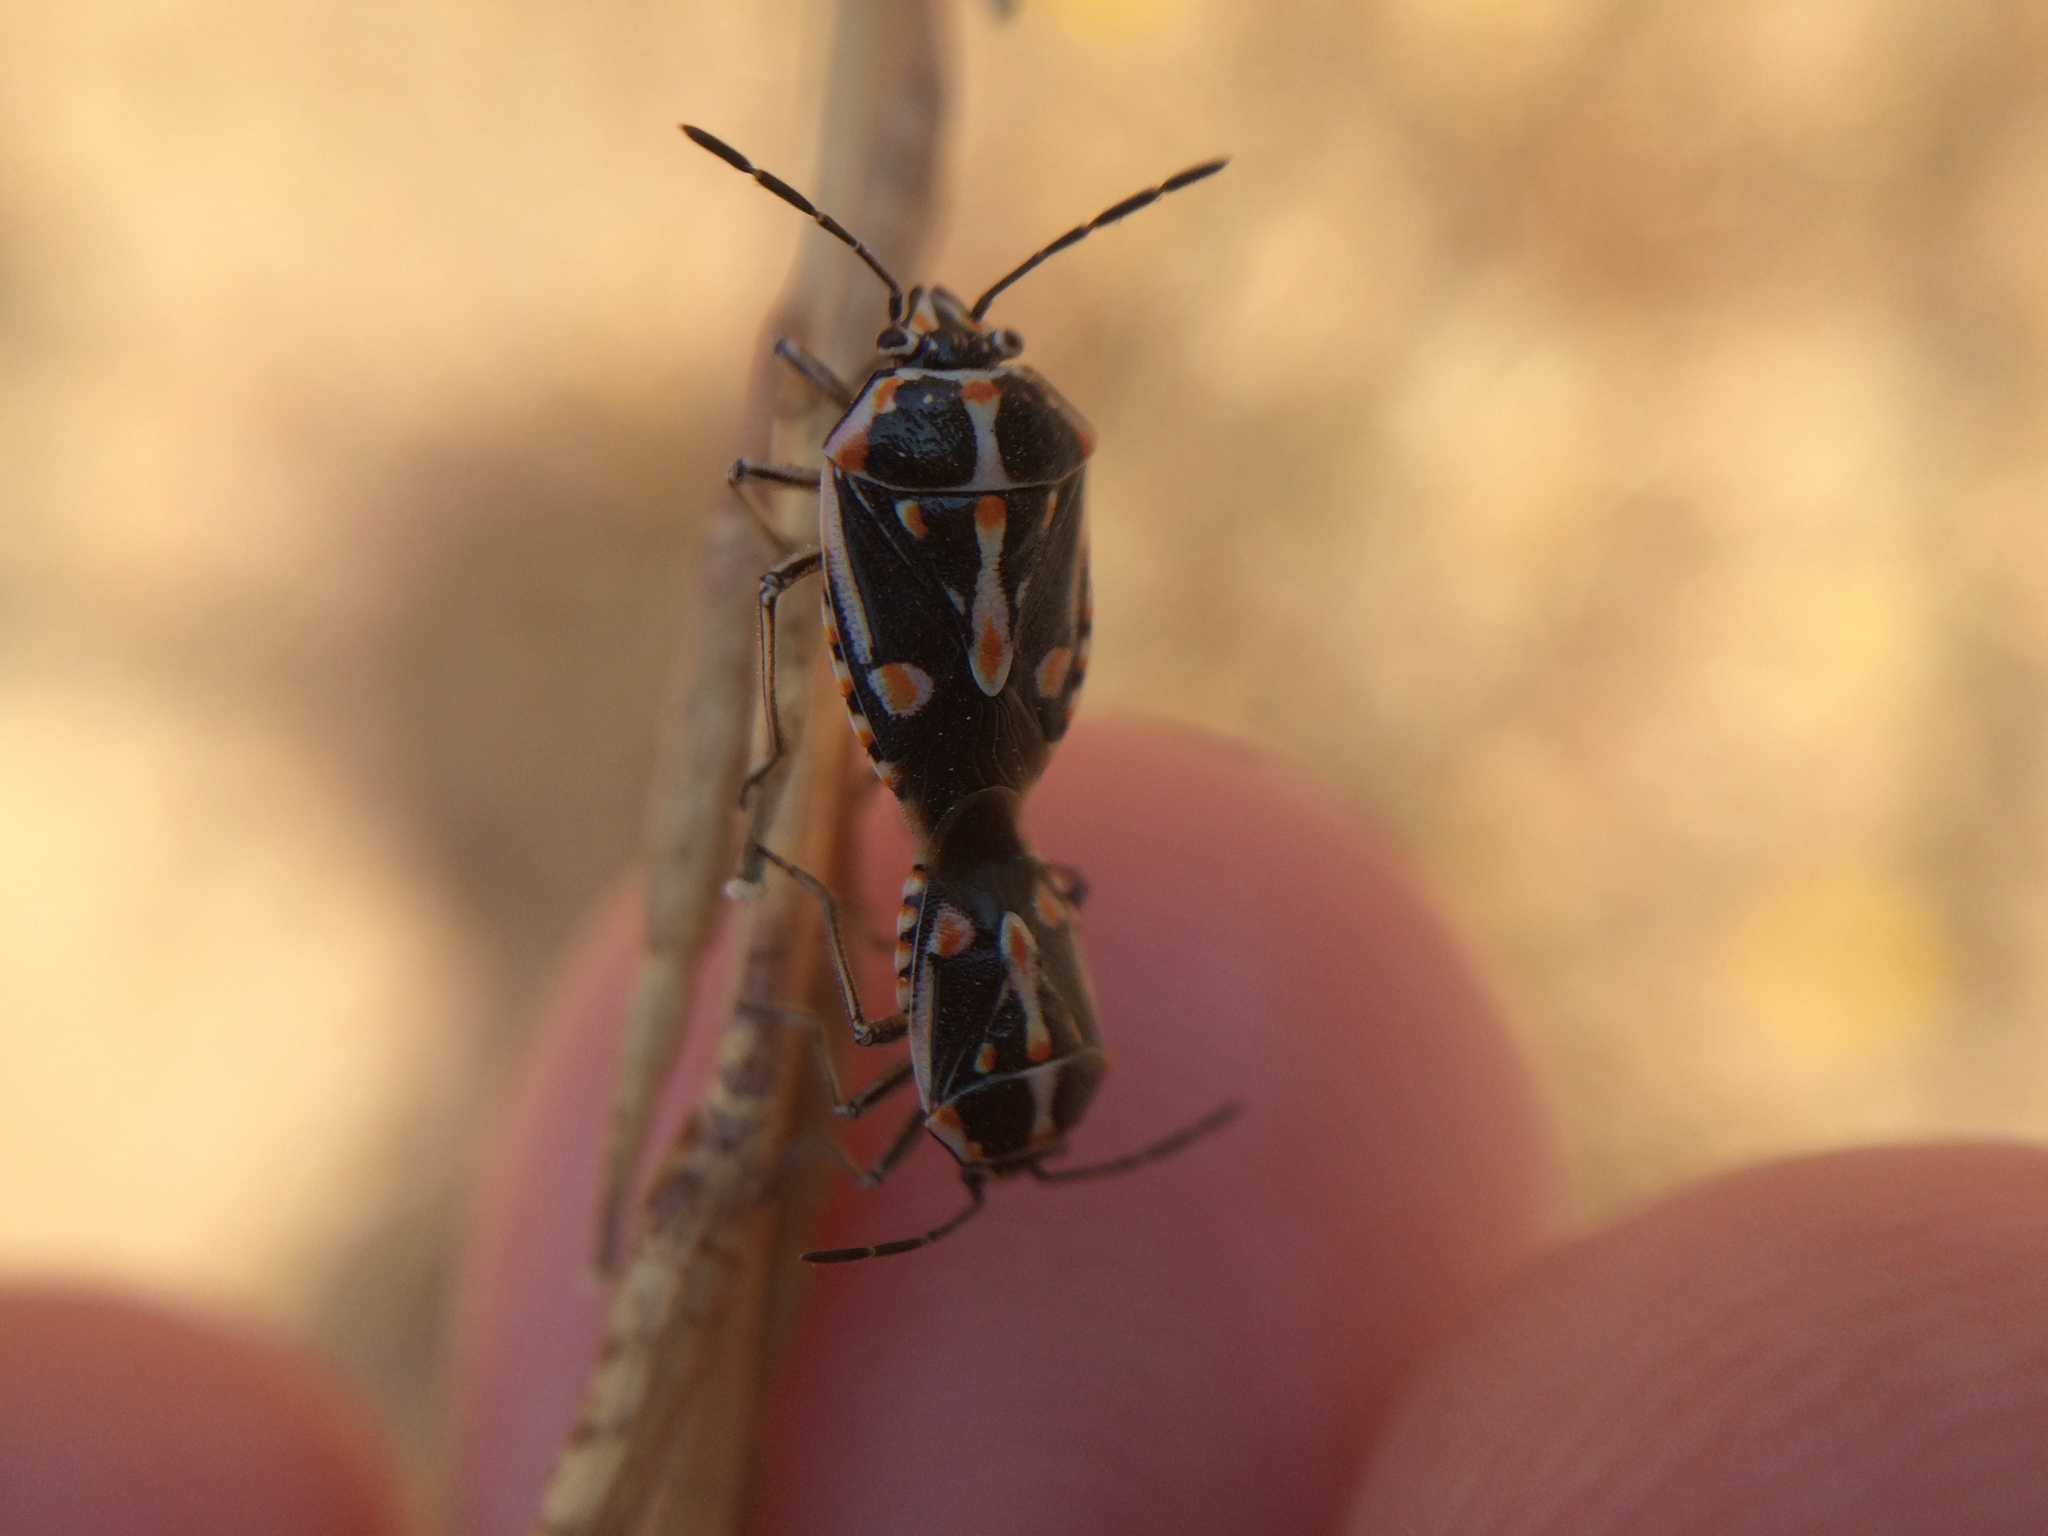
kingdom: Animalia
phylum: Arthropoda
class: Insecta
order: Hemiptera
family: Pentatomidae
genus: Bagrada
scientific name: Bagrada hilaris
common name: Bagrada bug
